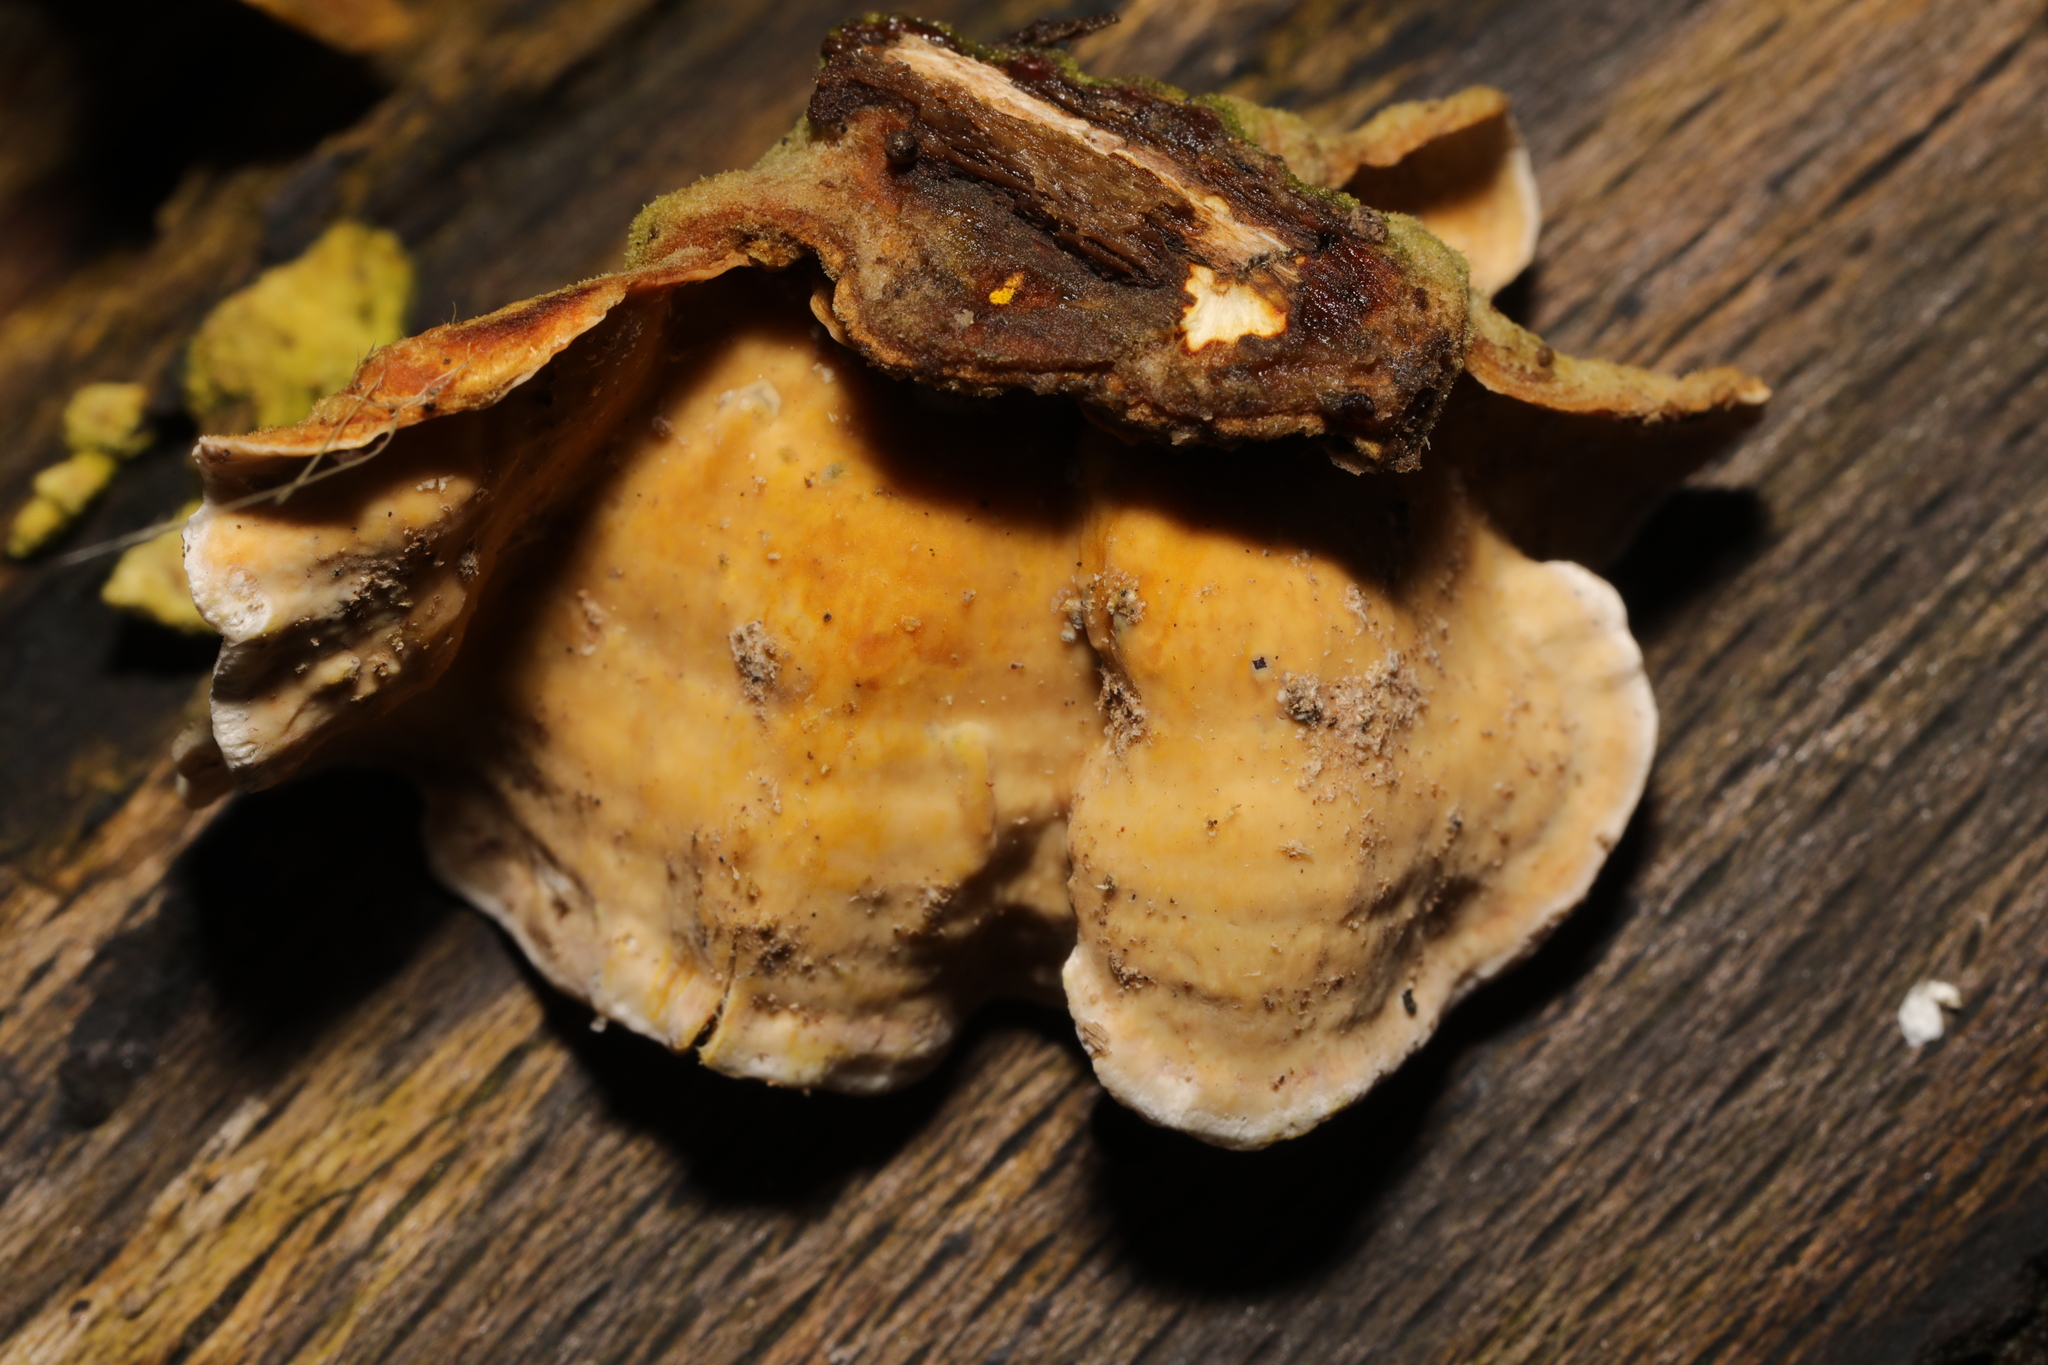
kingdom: Fungi
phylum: Basidiomycota
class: Agaricomycetes
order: Russulales
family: Stereaceae
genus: Stereum
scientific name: Stereum subtomentosum
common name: Yellowing curtain crust
